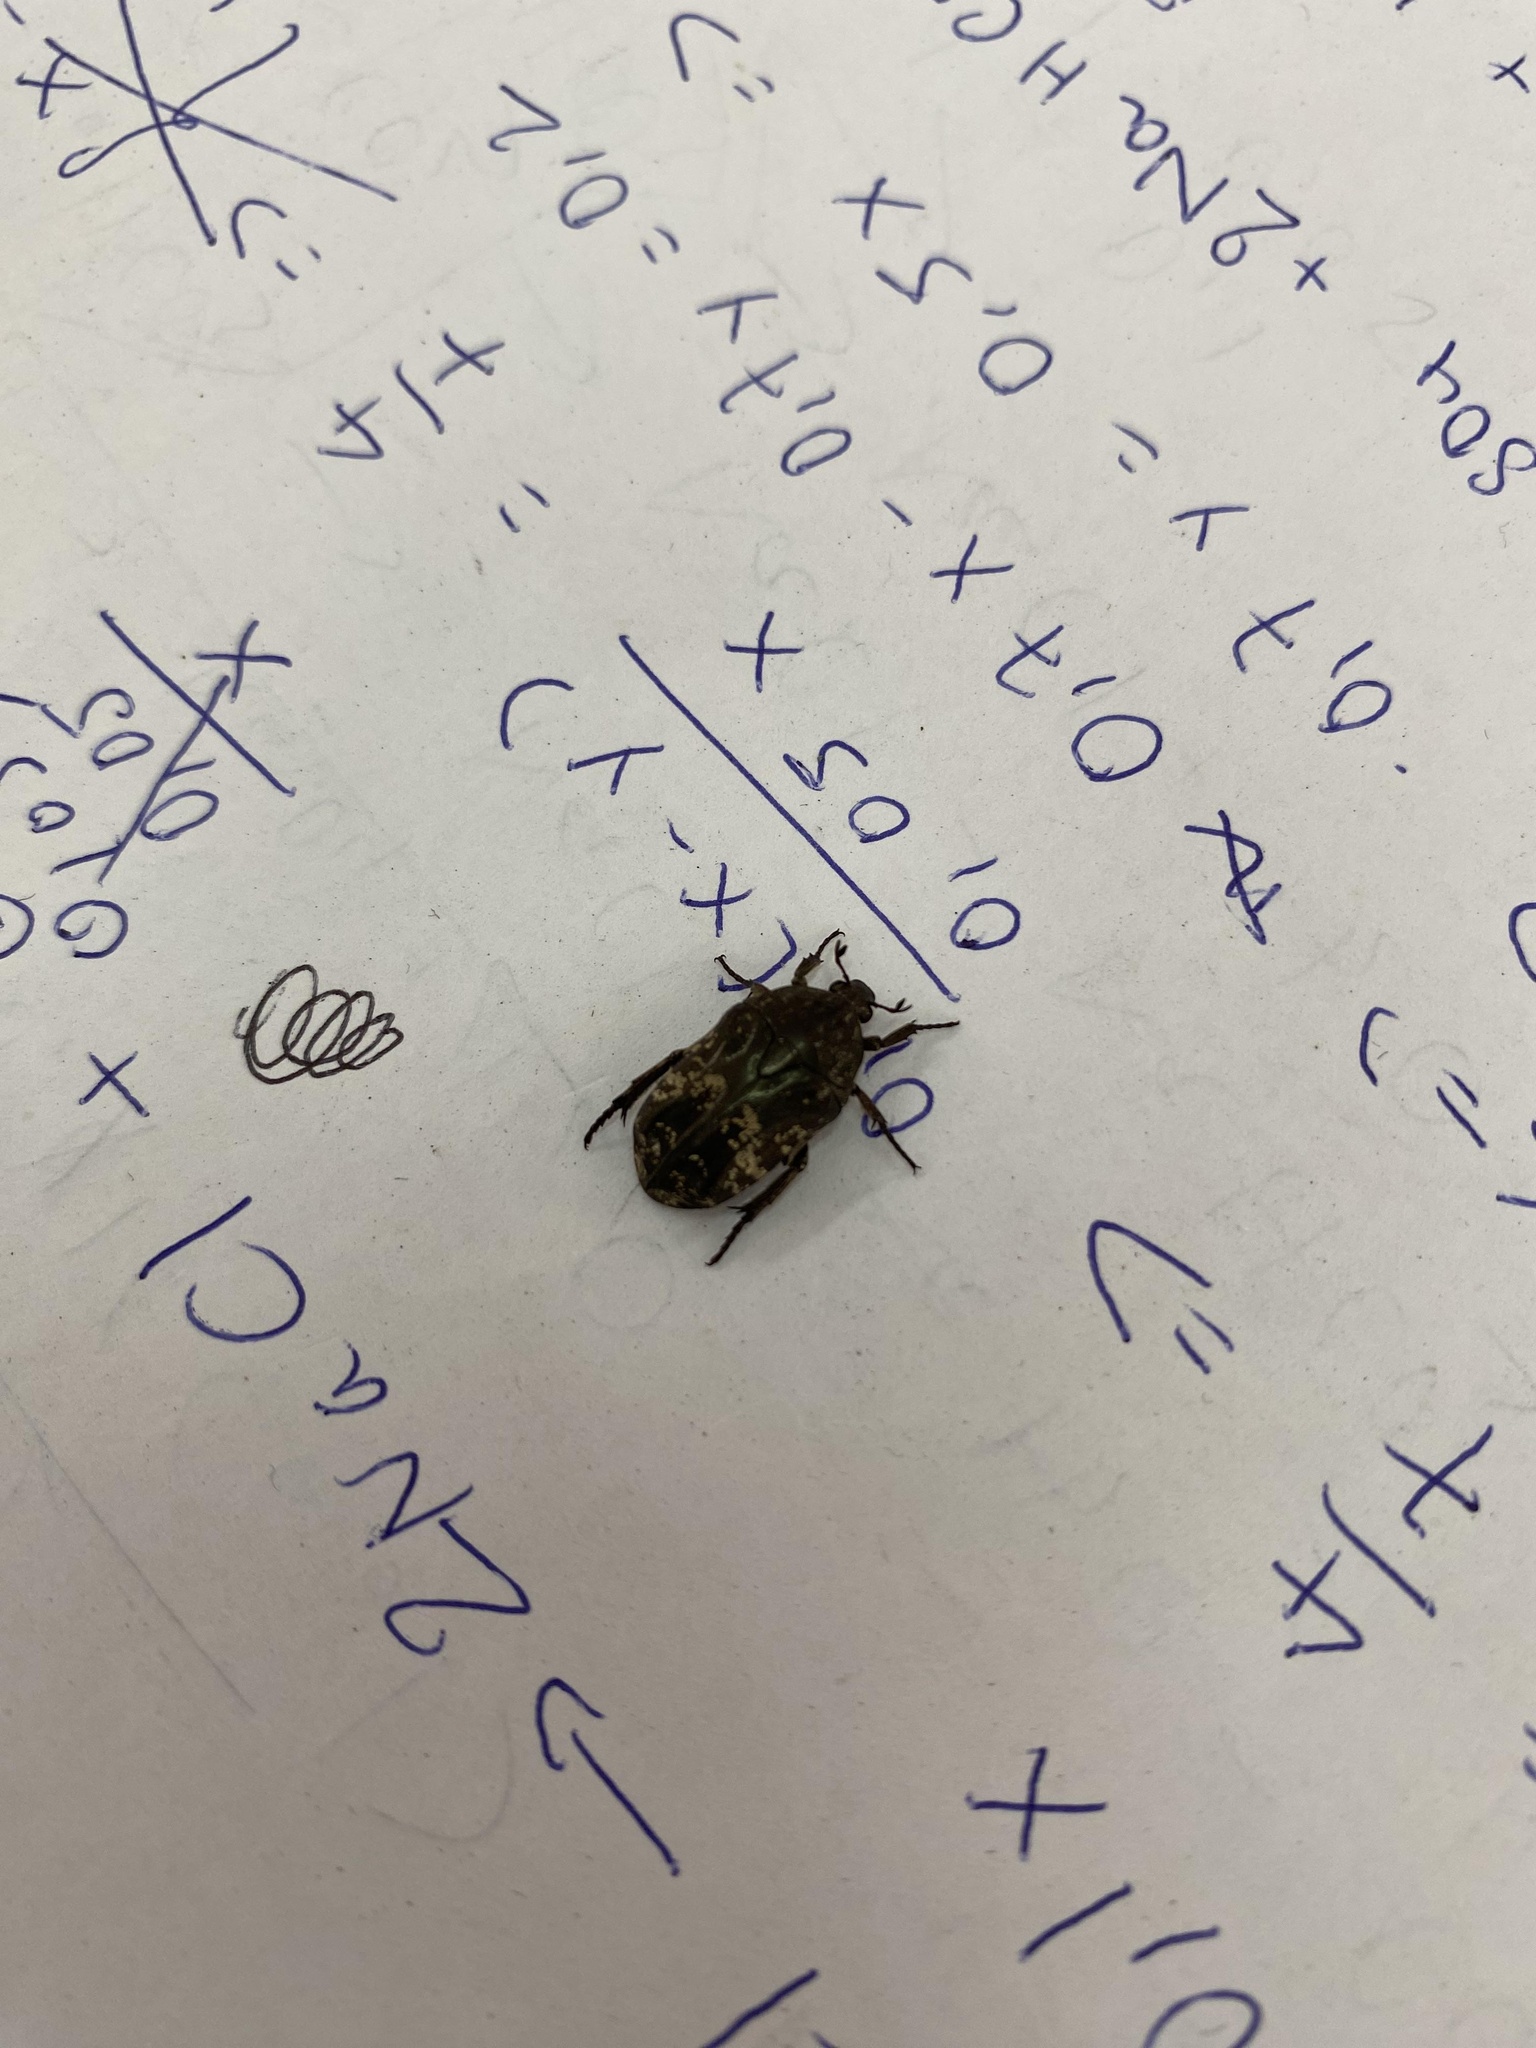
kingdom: Animalia
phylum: Arthropoda
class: Insecta
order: Coleoptera
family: Scarabaeidae
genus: Protaetia
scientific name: Protaetia acuminata
